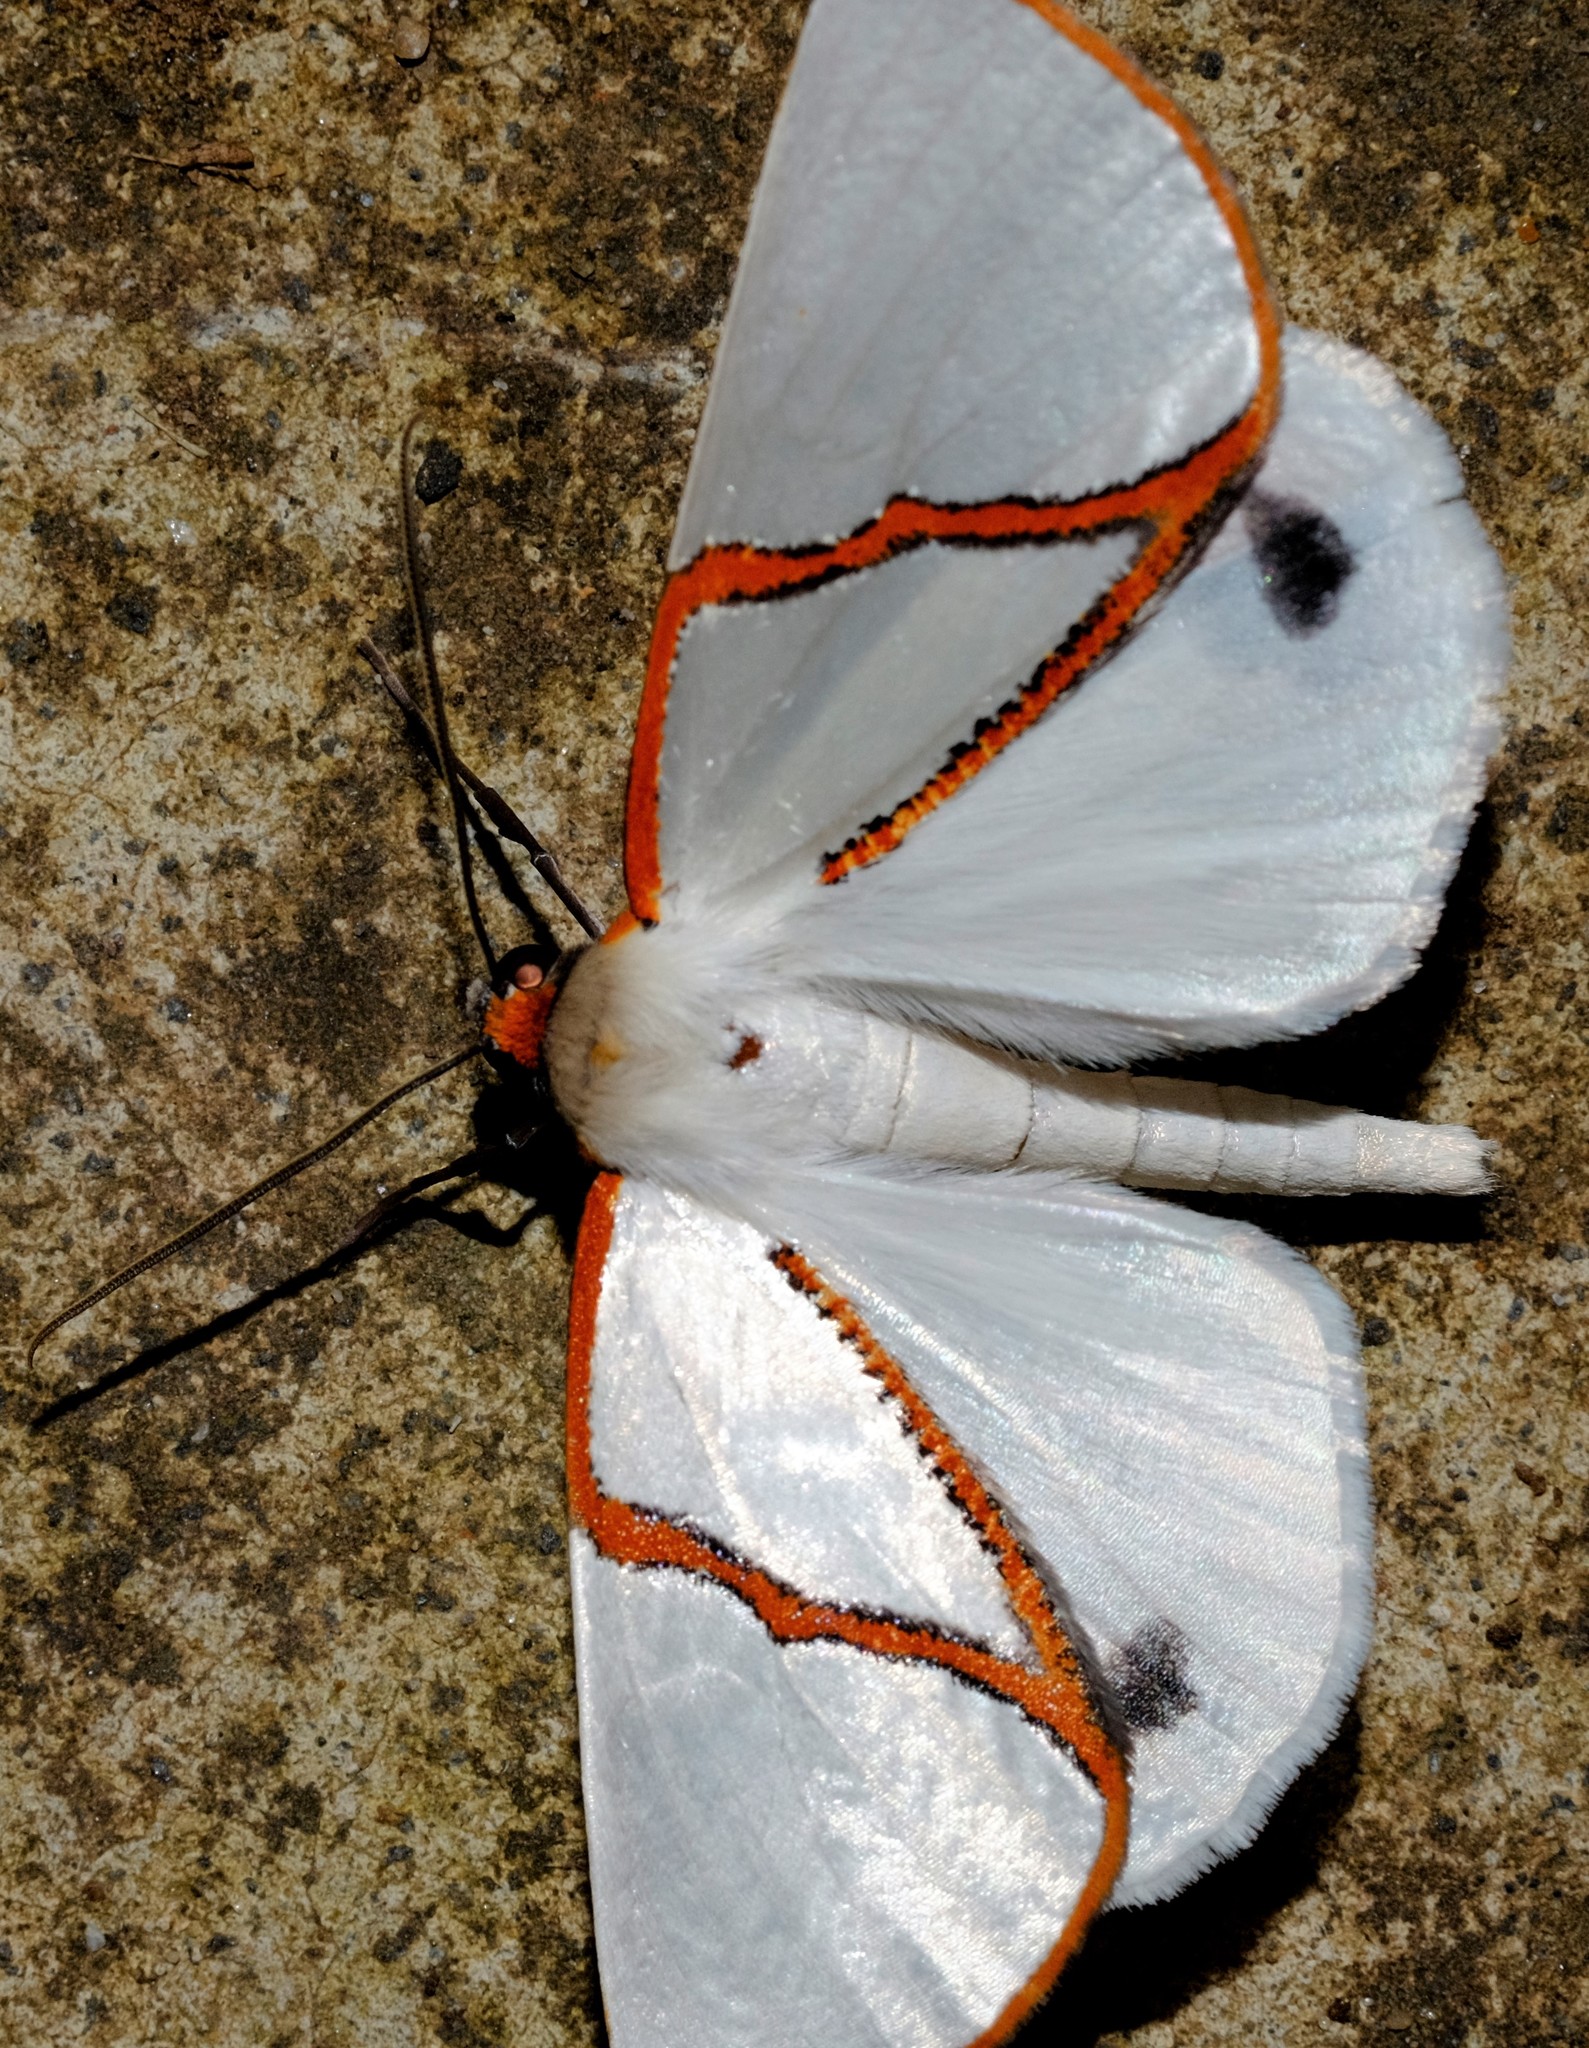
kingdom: Animalia
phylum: Arthropoda
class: Insecta
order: Lepidoptera
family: Geometridae
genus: Thalaina
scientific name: Thalaina selenaea
